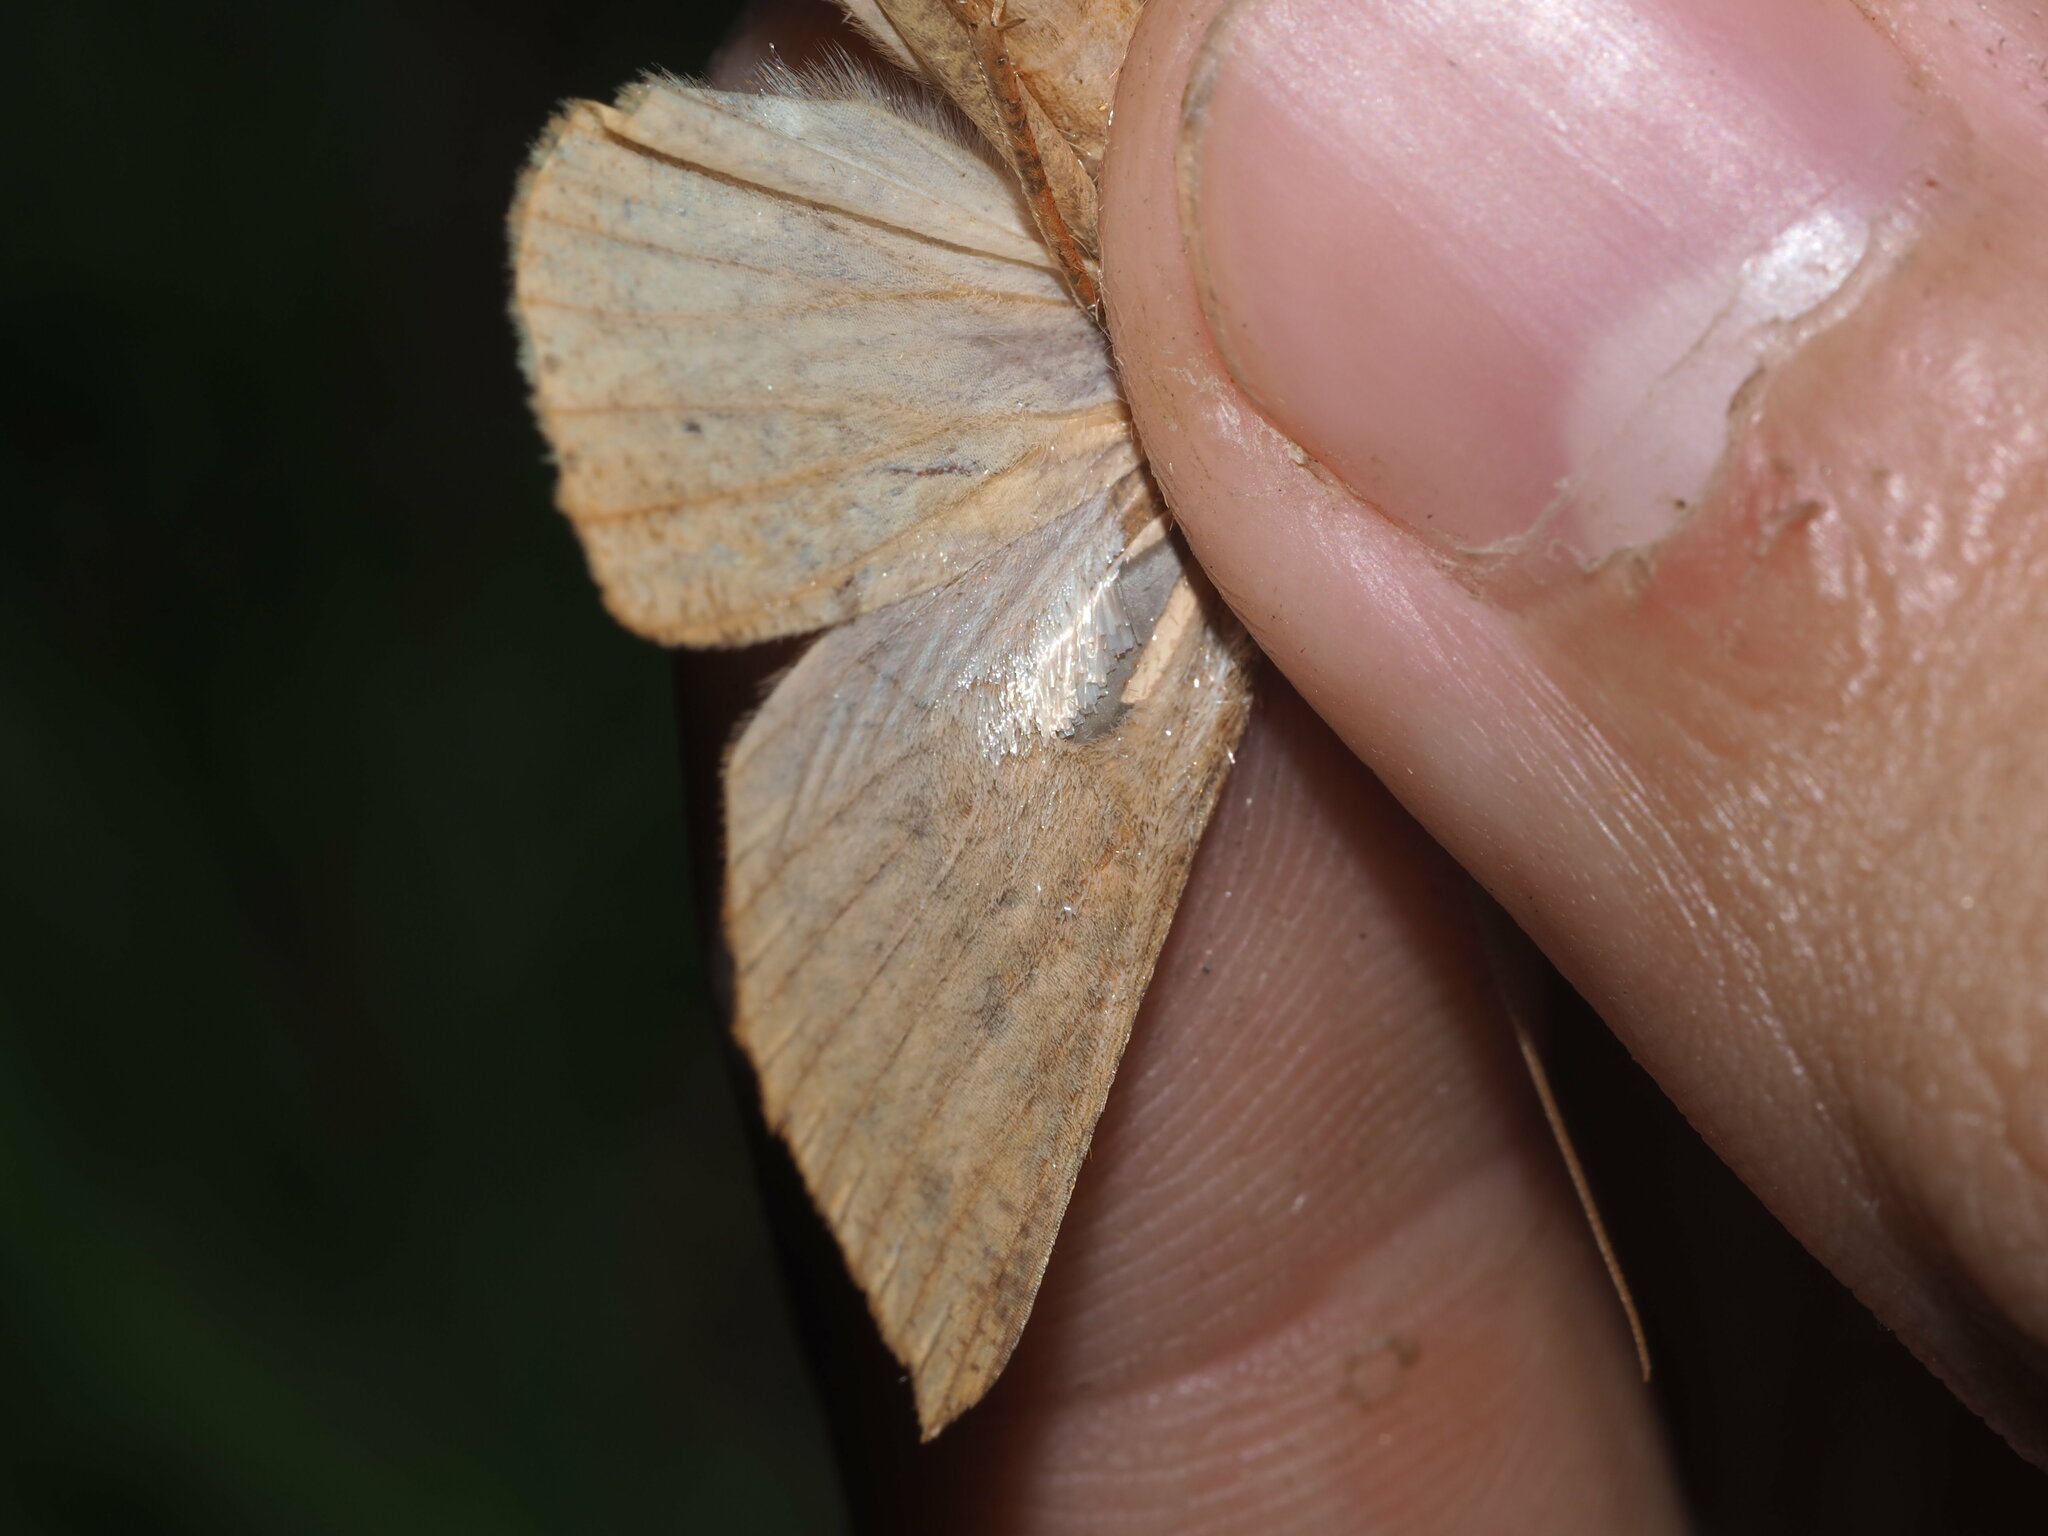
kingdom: Animalia
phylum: Arthropoda
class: Insecta
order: Lepidoptera
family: Geometridae
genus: Scotorythra
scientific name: Scotorythra epixantha
